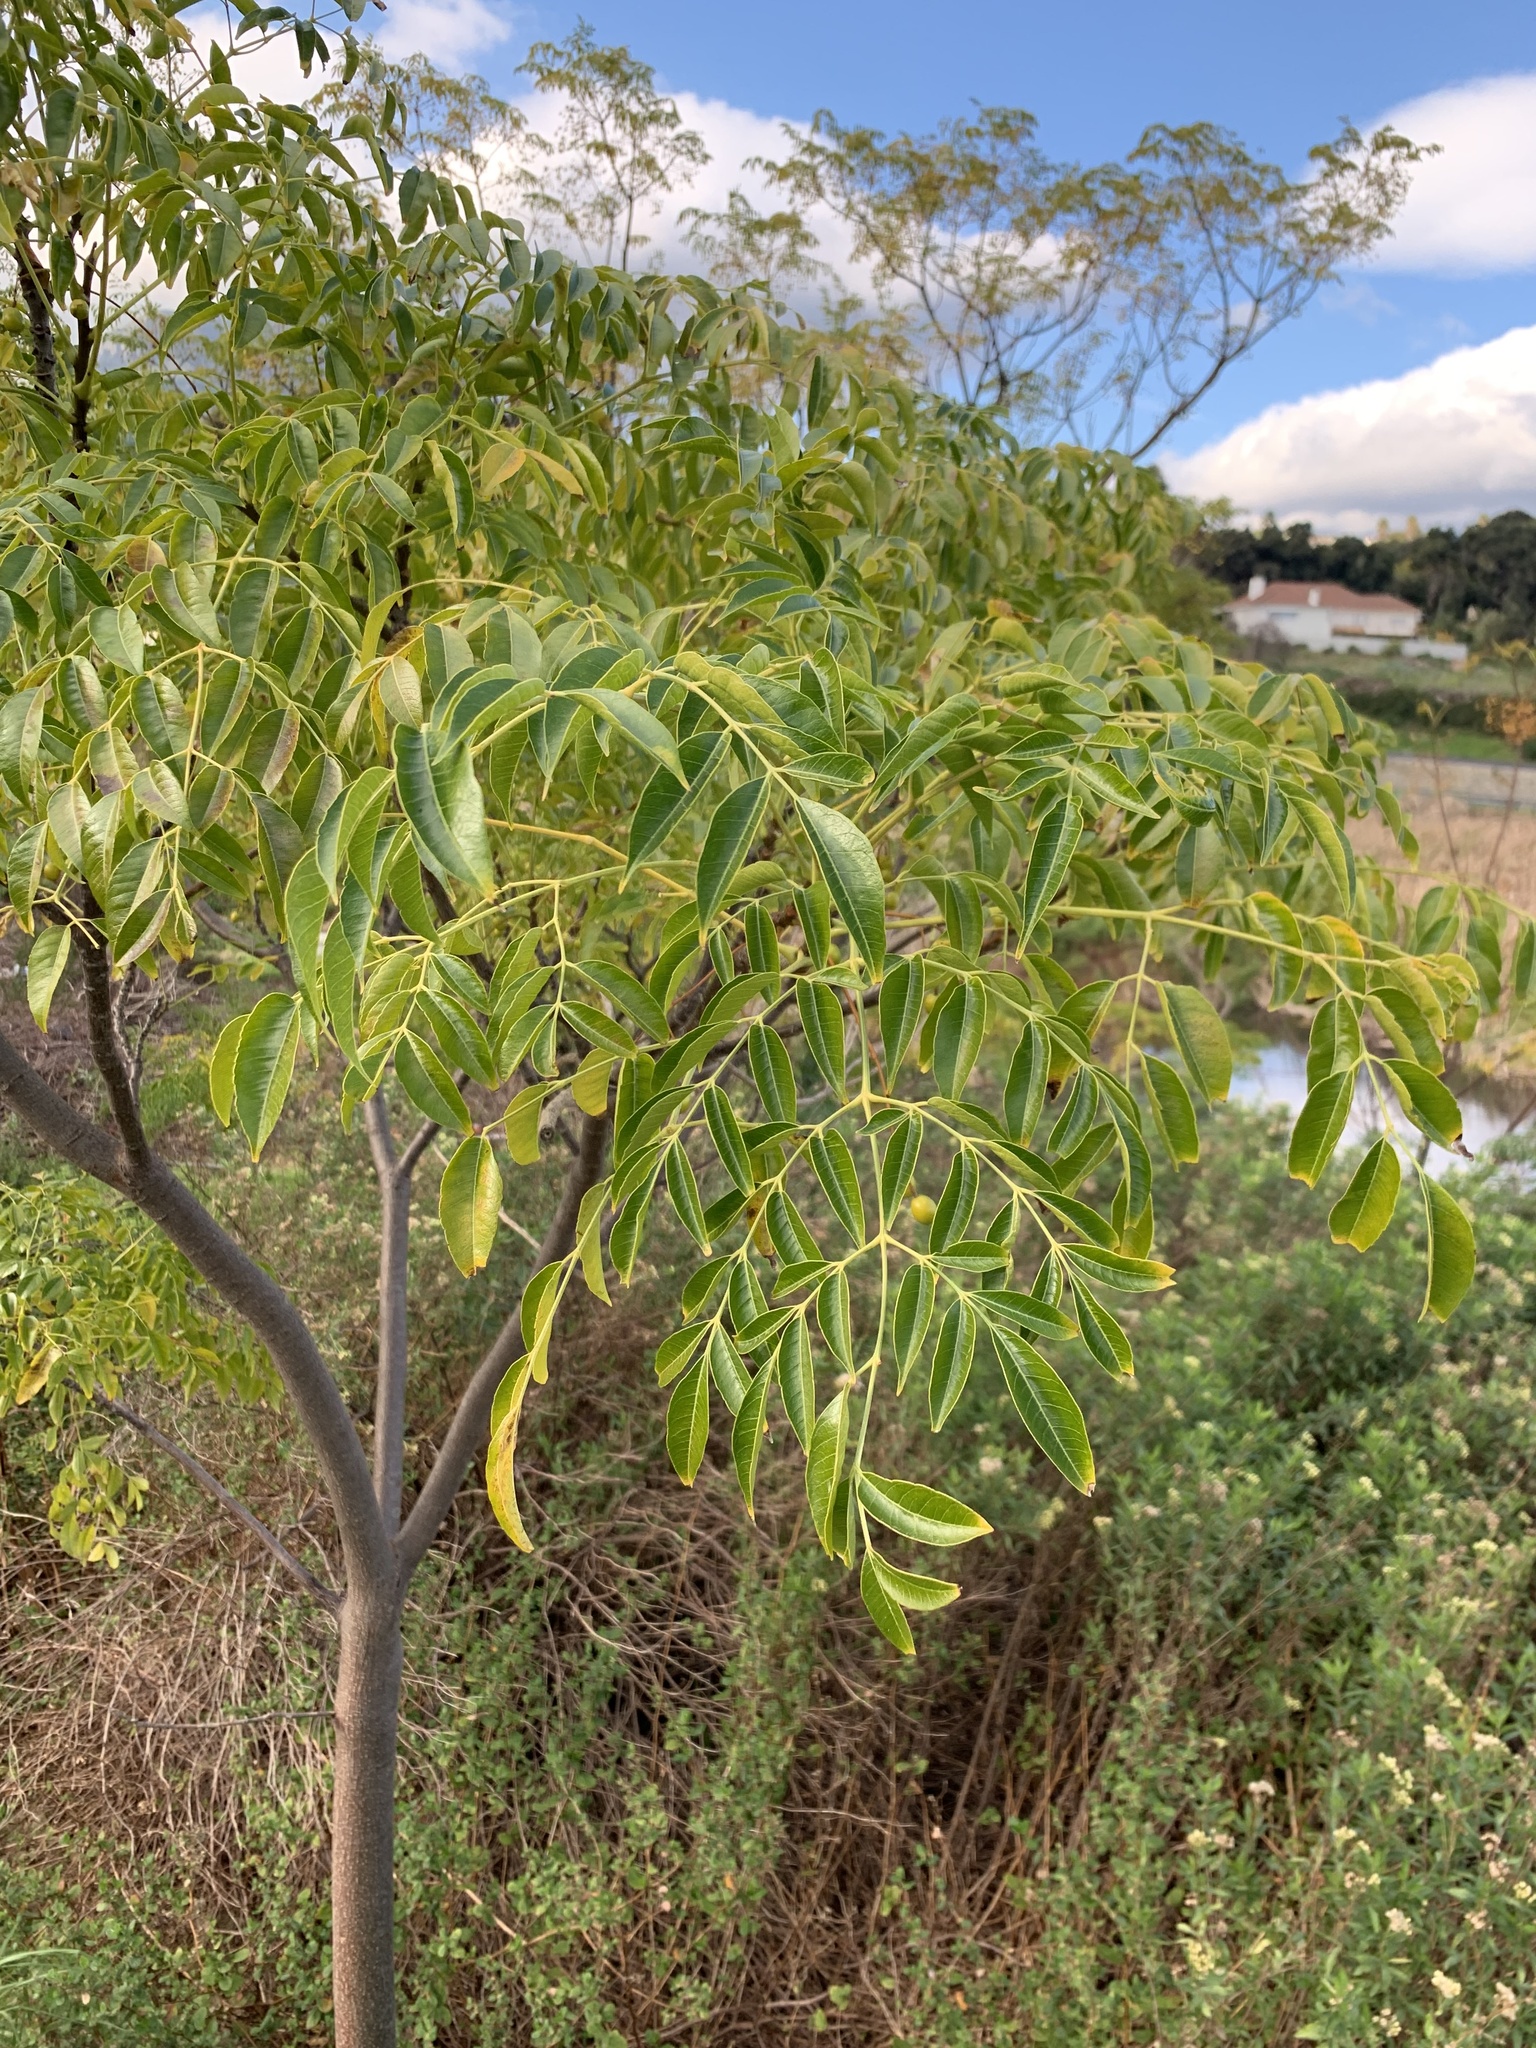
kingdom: Plantae
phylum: Tracheophyta
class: Magnoliopsida
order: Sapindales
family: Meliaceae
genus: Melia
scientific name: Melia azedarach
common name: Chinaberrytree
